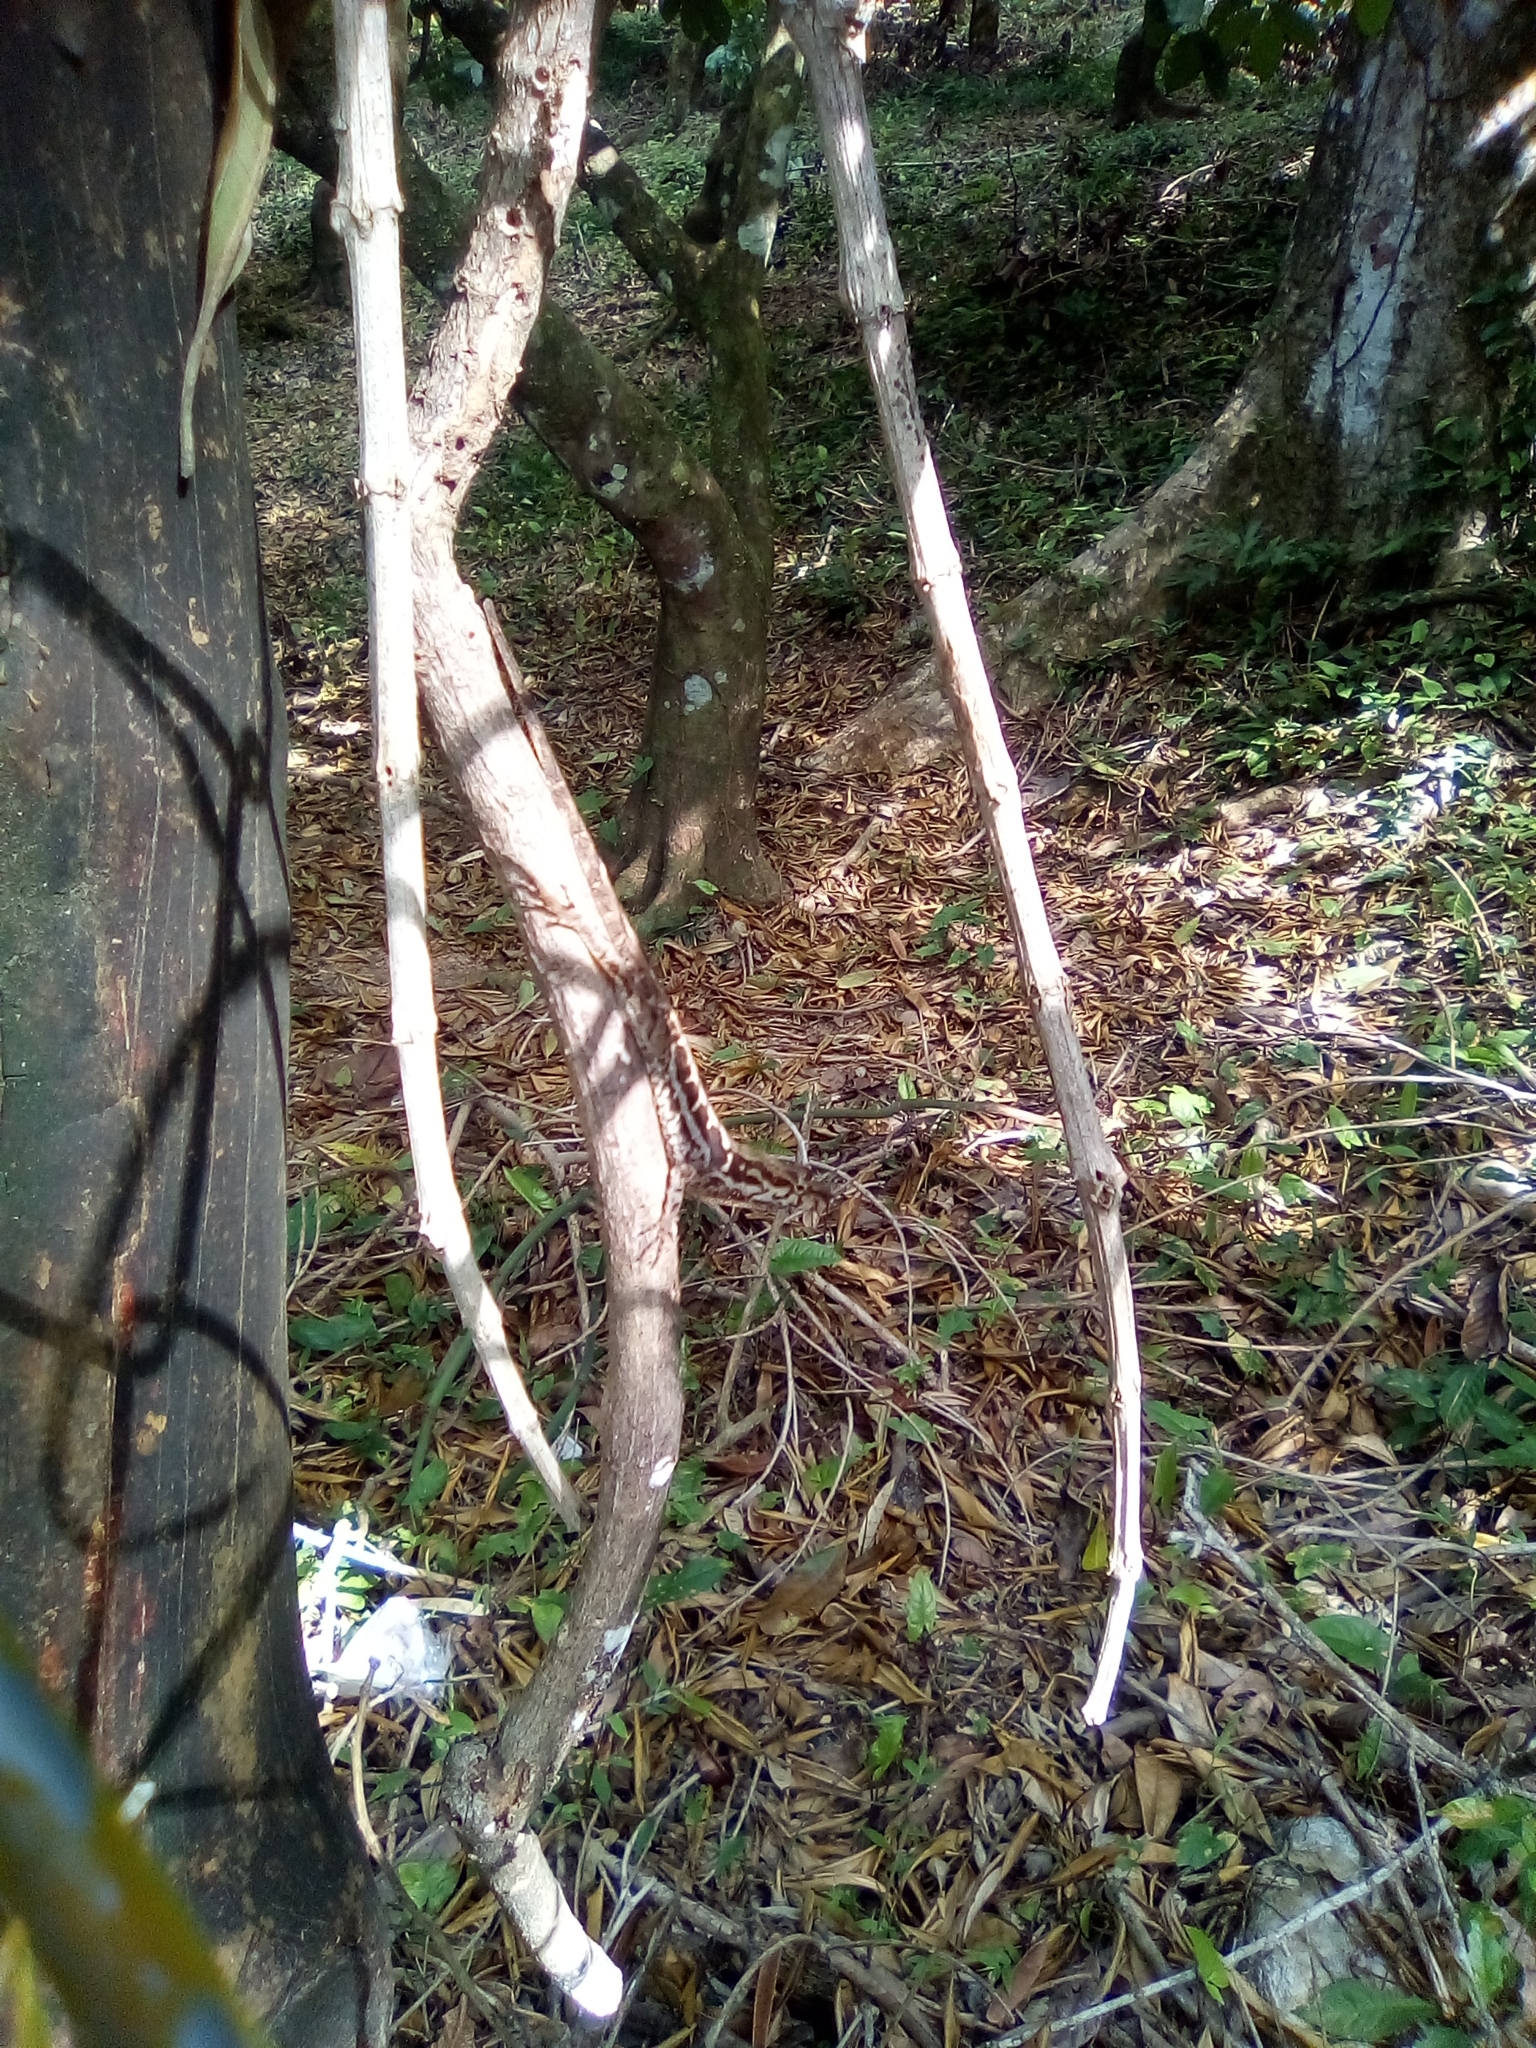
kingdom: Animalia
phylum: Chordata
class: Squamata
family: Dactyloidae
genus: Anolis
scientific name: Anolis wilsoni
